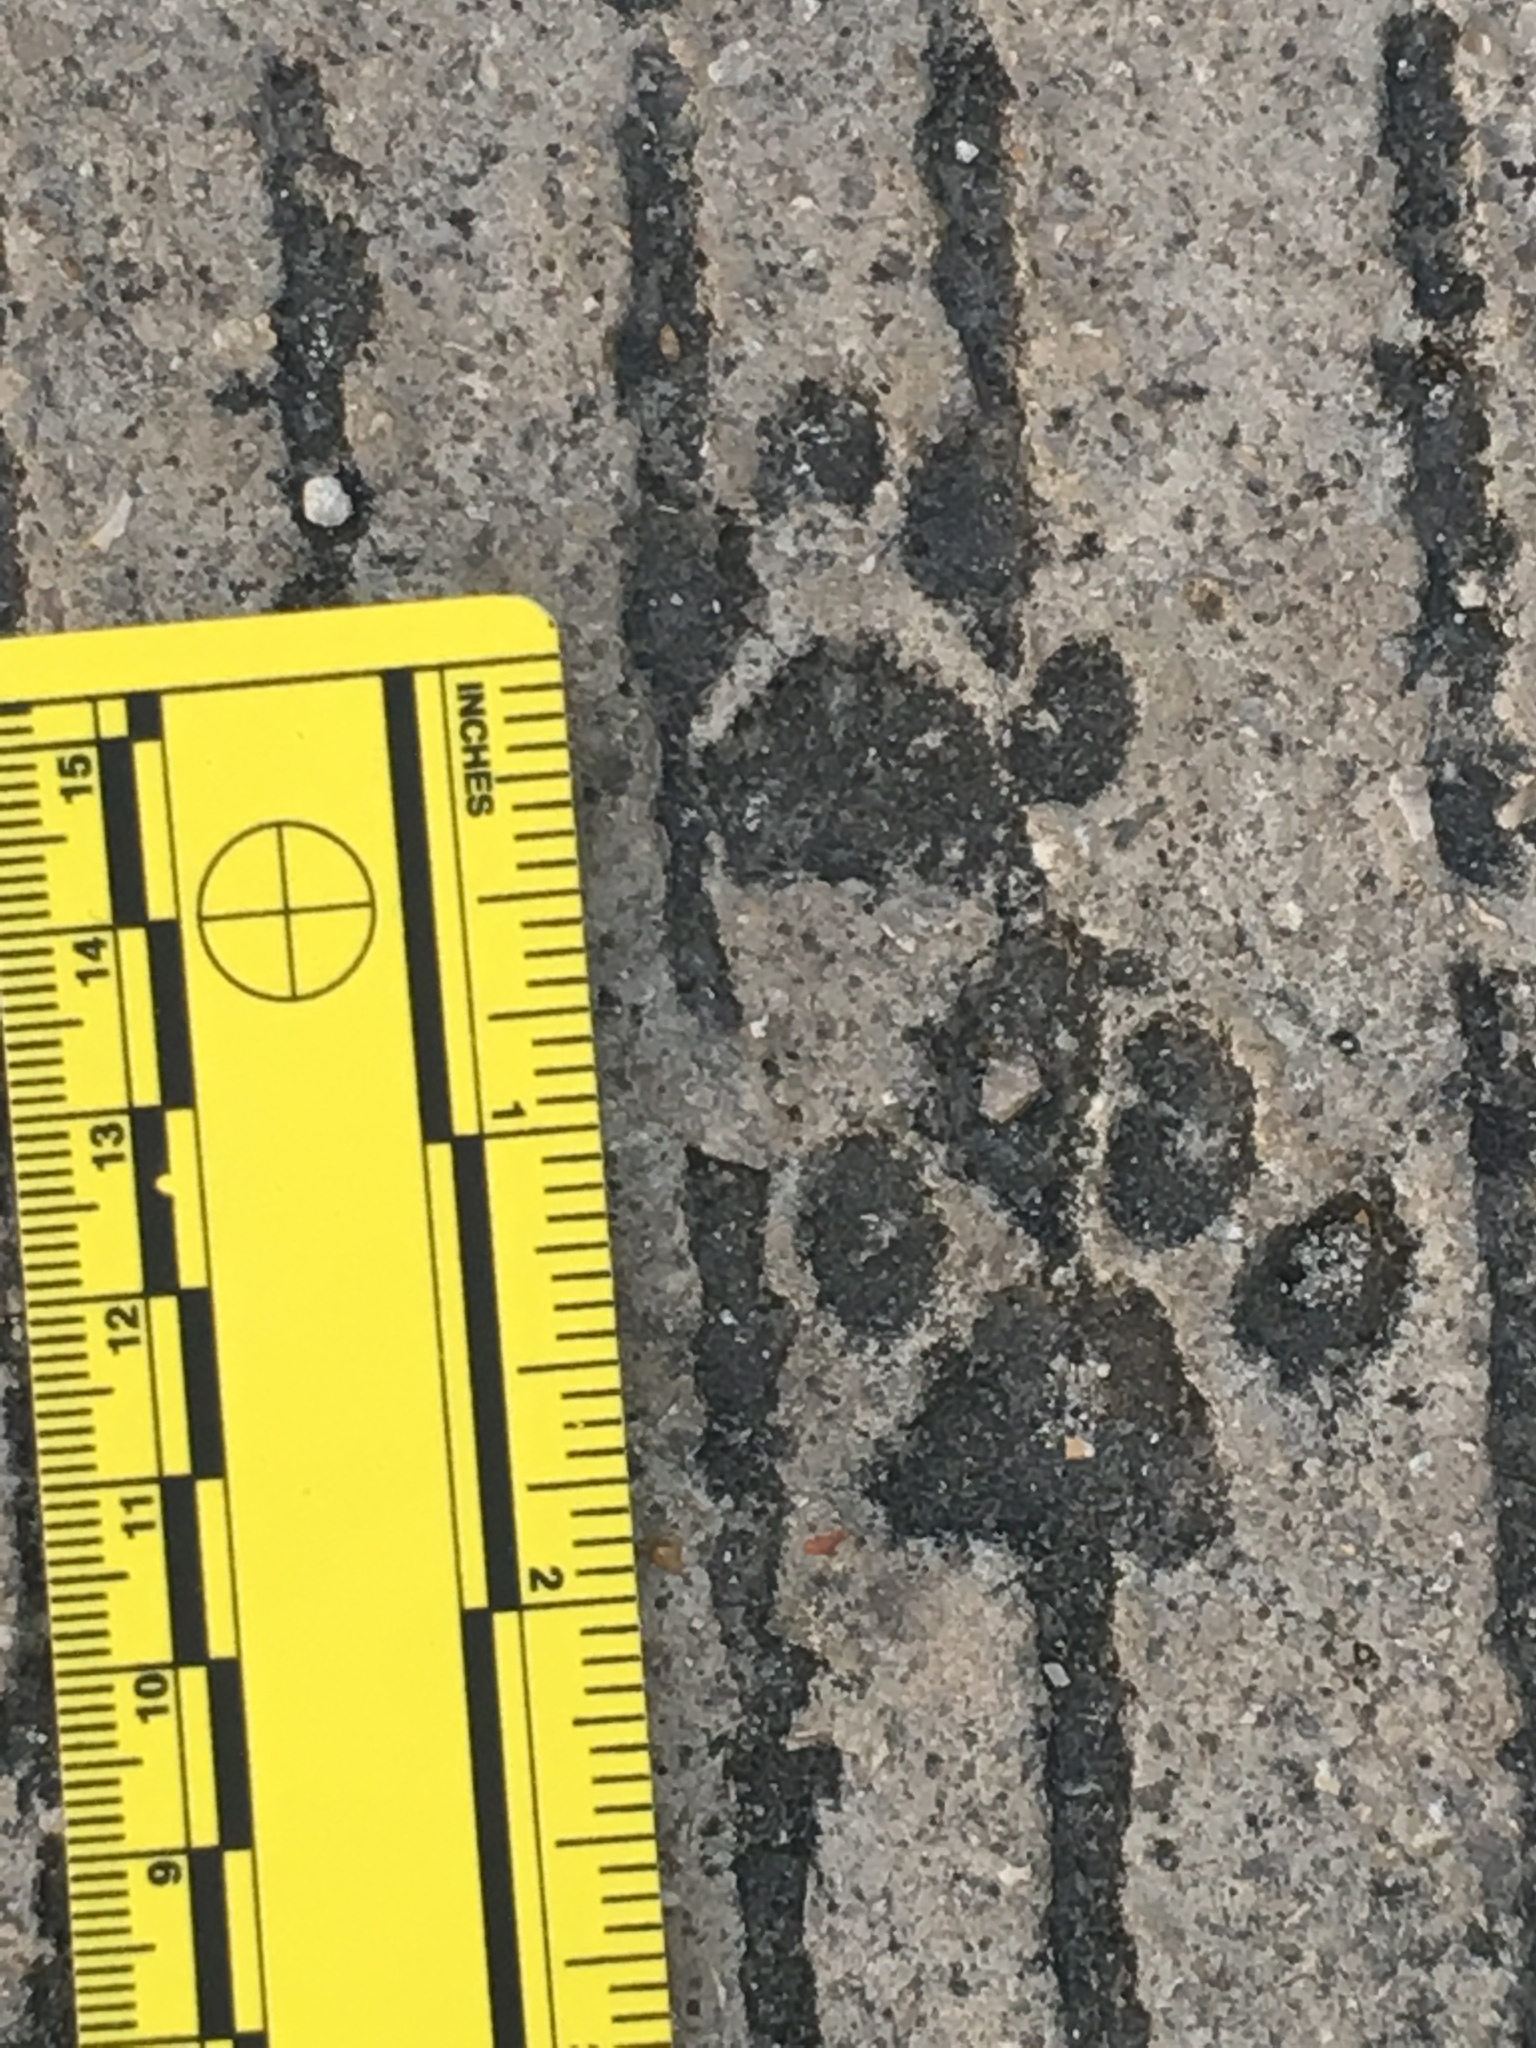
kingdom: Animalia
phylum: Chordata
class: Mammalia
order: Carnivora
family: Felidae
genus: Felis
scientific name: Felis catus
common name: Domestic cat
